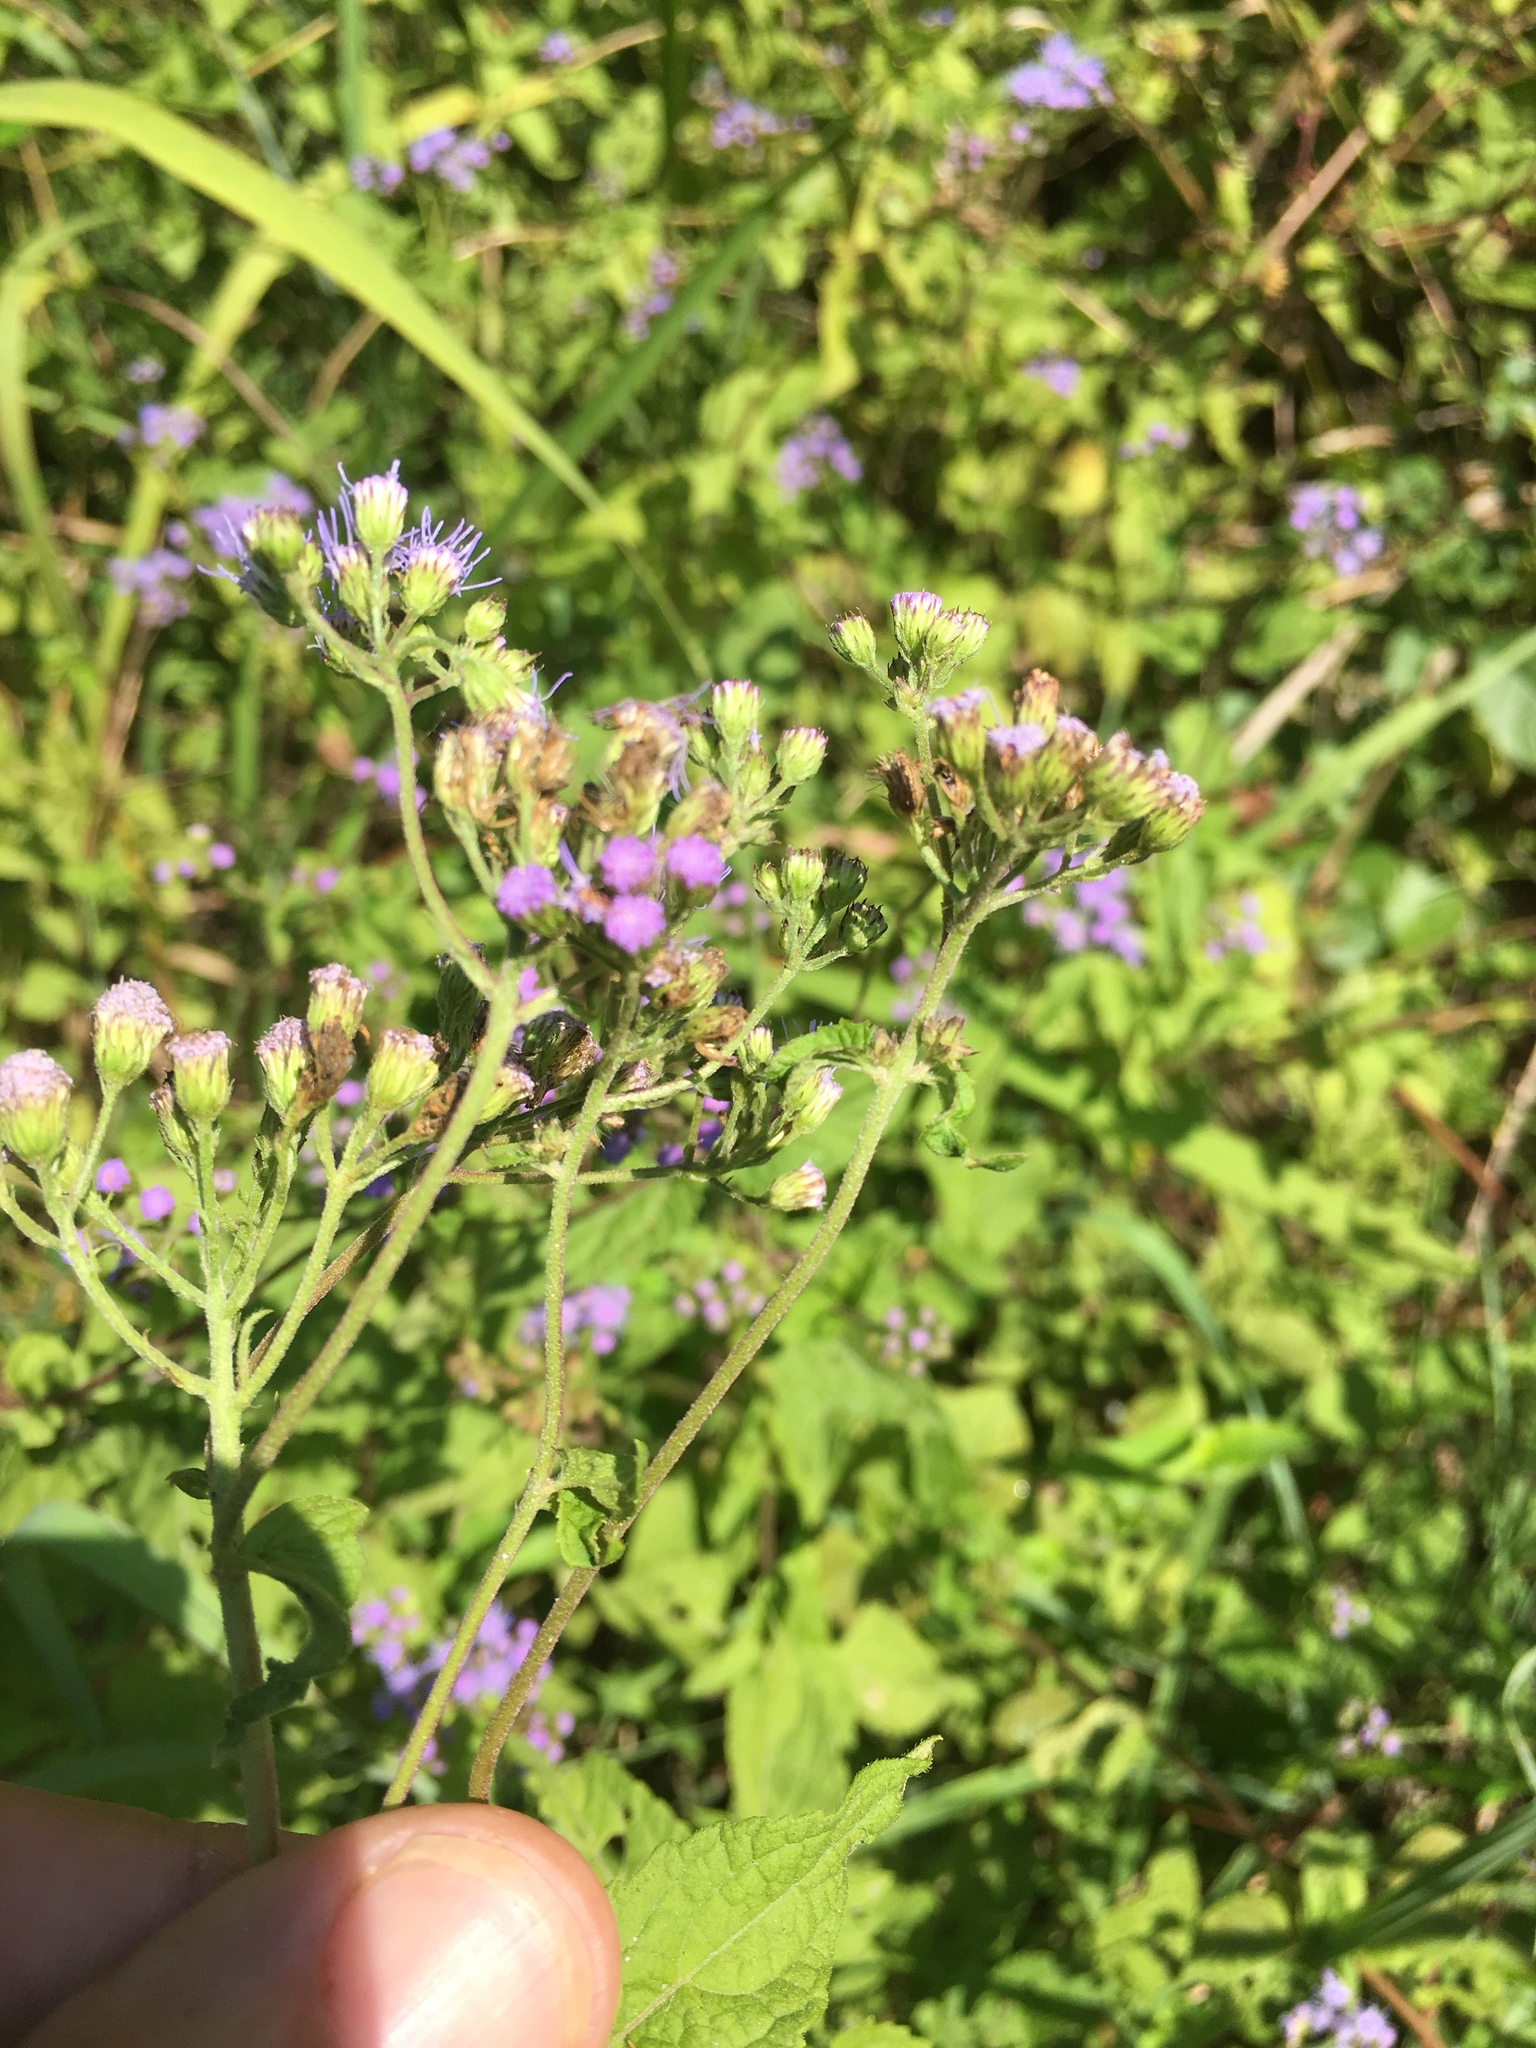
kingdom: Plantae
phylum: Tracheophyta
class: Magnoliopsida
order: Asterales
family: Asteraceae
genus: Conoclinium
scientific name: Conoclinium coelestinum
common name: Blue mistflower
